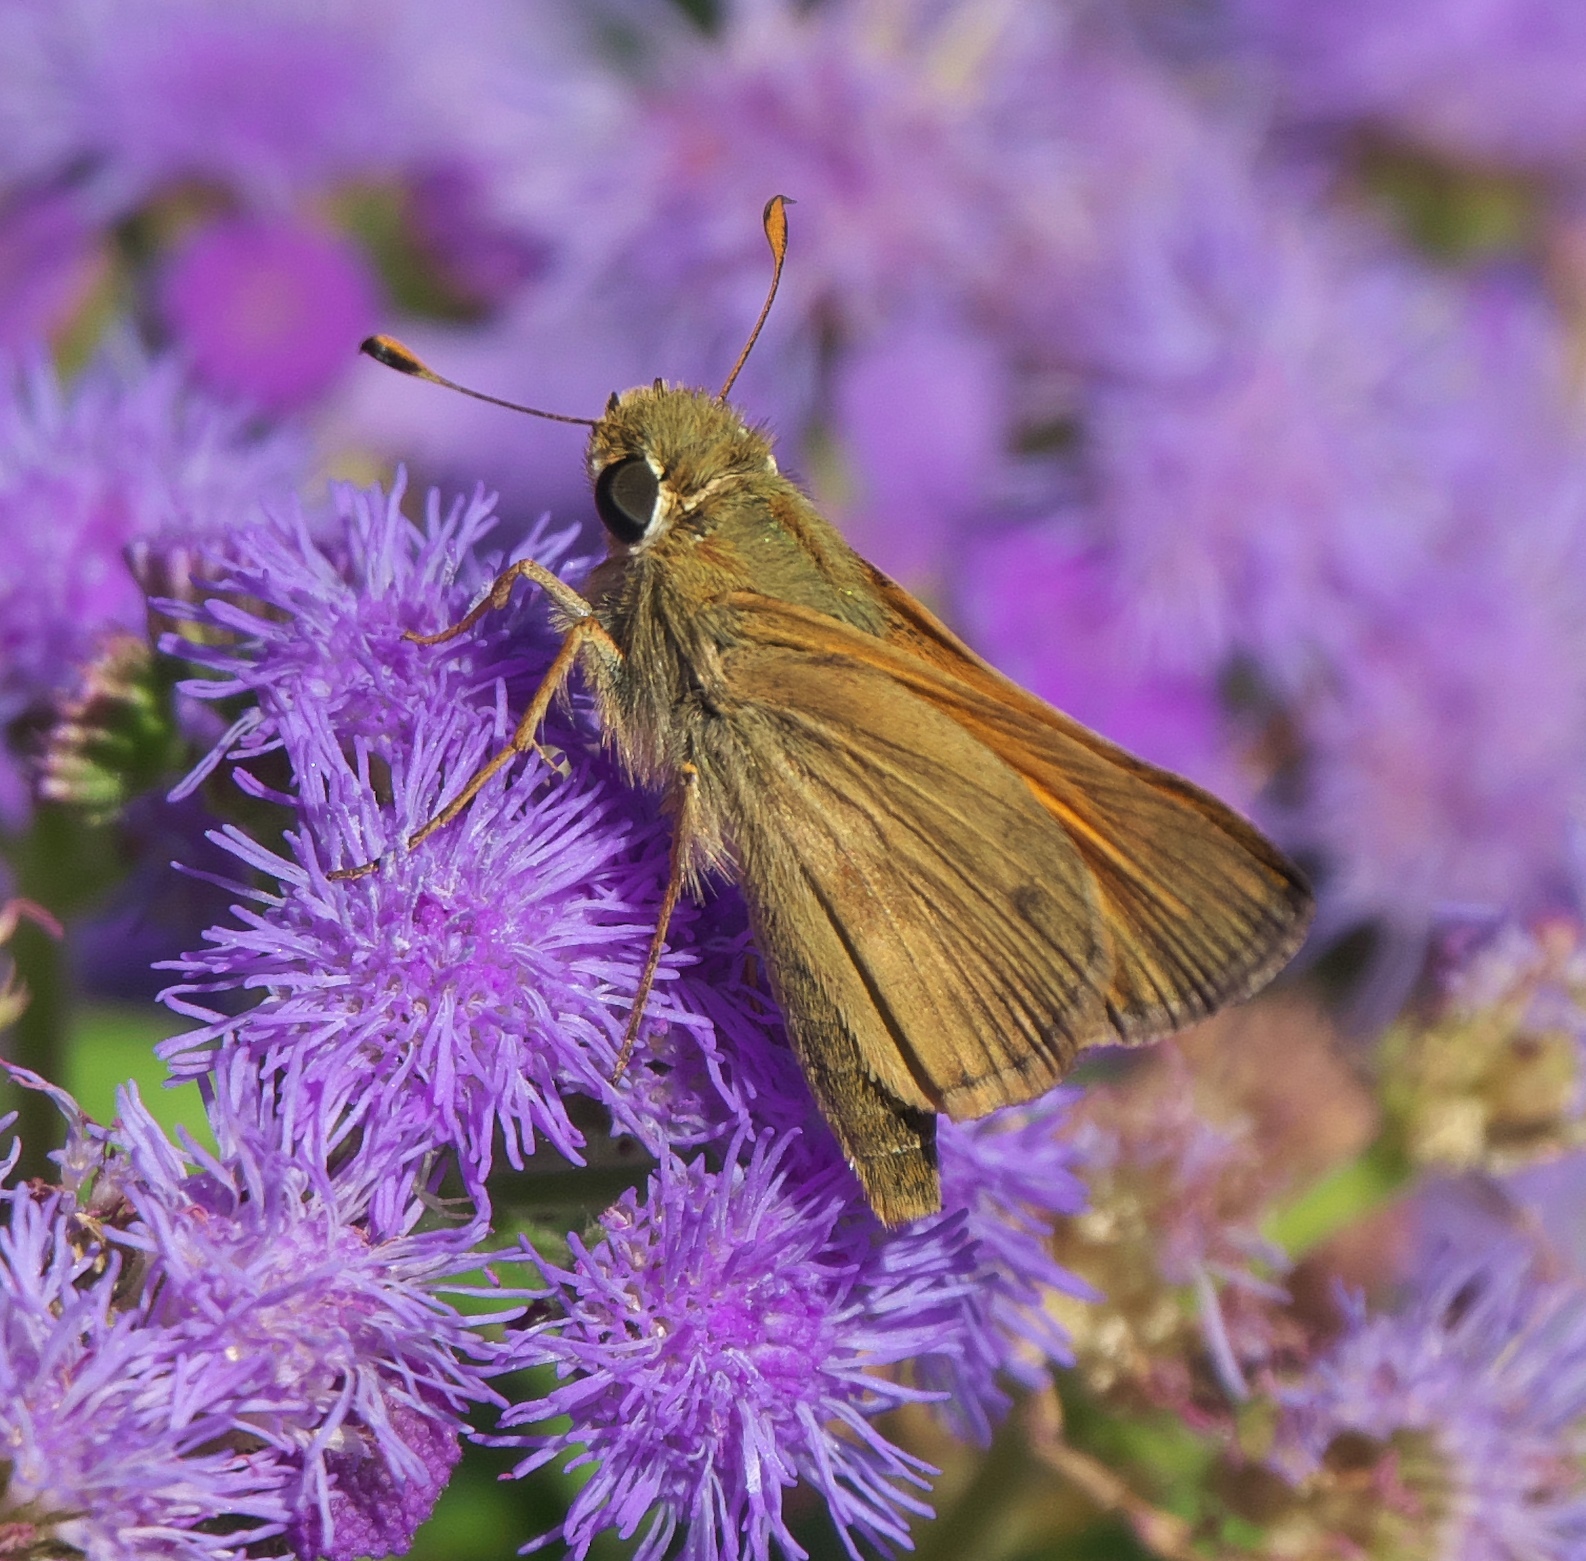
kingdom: Animalia
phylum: Arthropoda
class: Insecta
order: Lepidoptera
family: Hesperiidae
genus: Atalopedes
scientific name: Atalopedes
